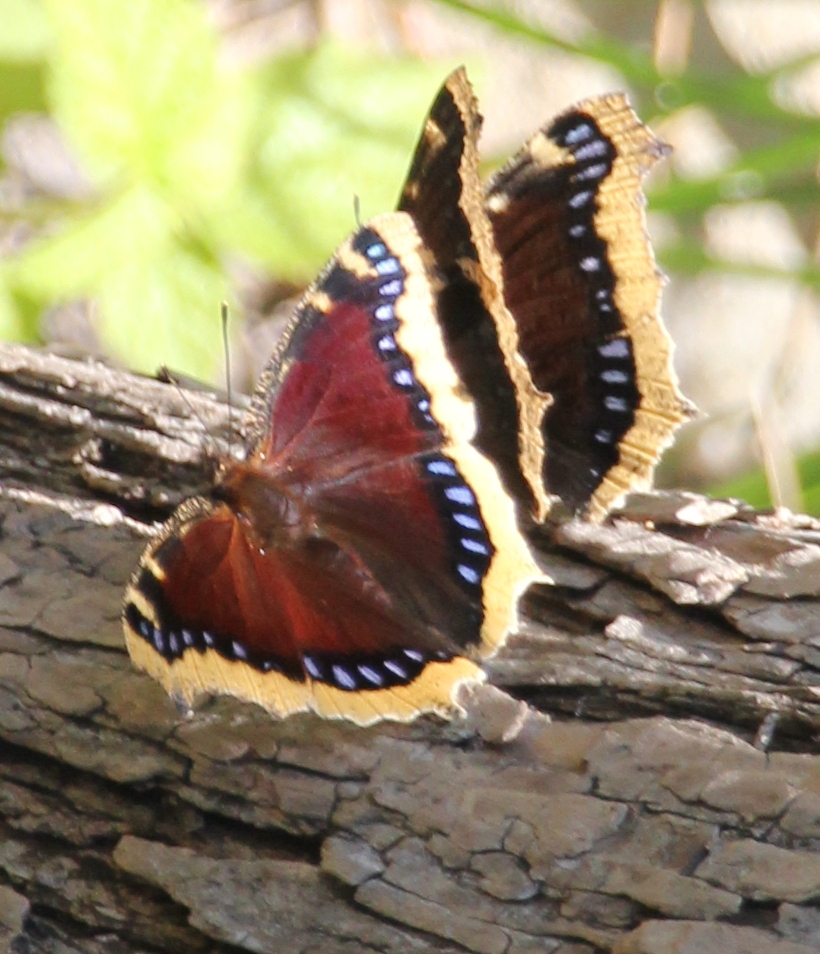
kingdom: Animalia
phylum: Arthropoda
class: Insecta
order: Lepidoptera
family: Nymphalidae
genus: Nymphalis
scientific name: Nymphalis antiopa
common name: Camberwell beauty
